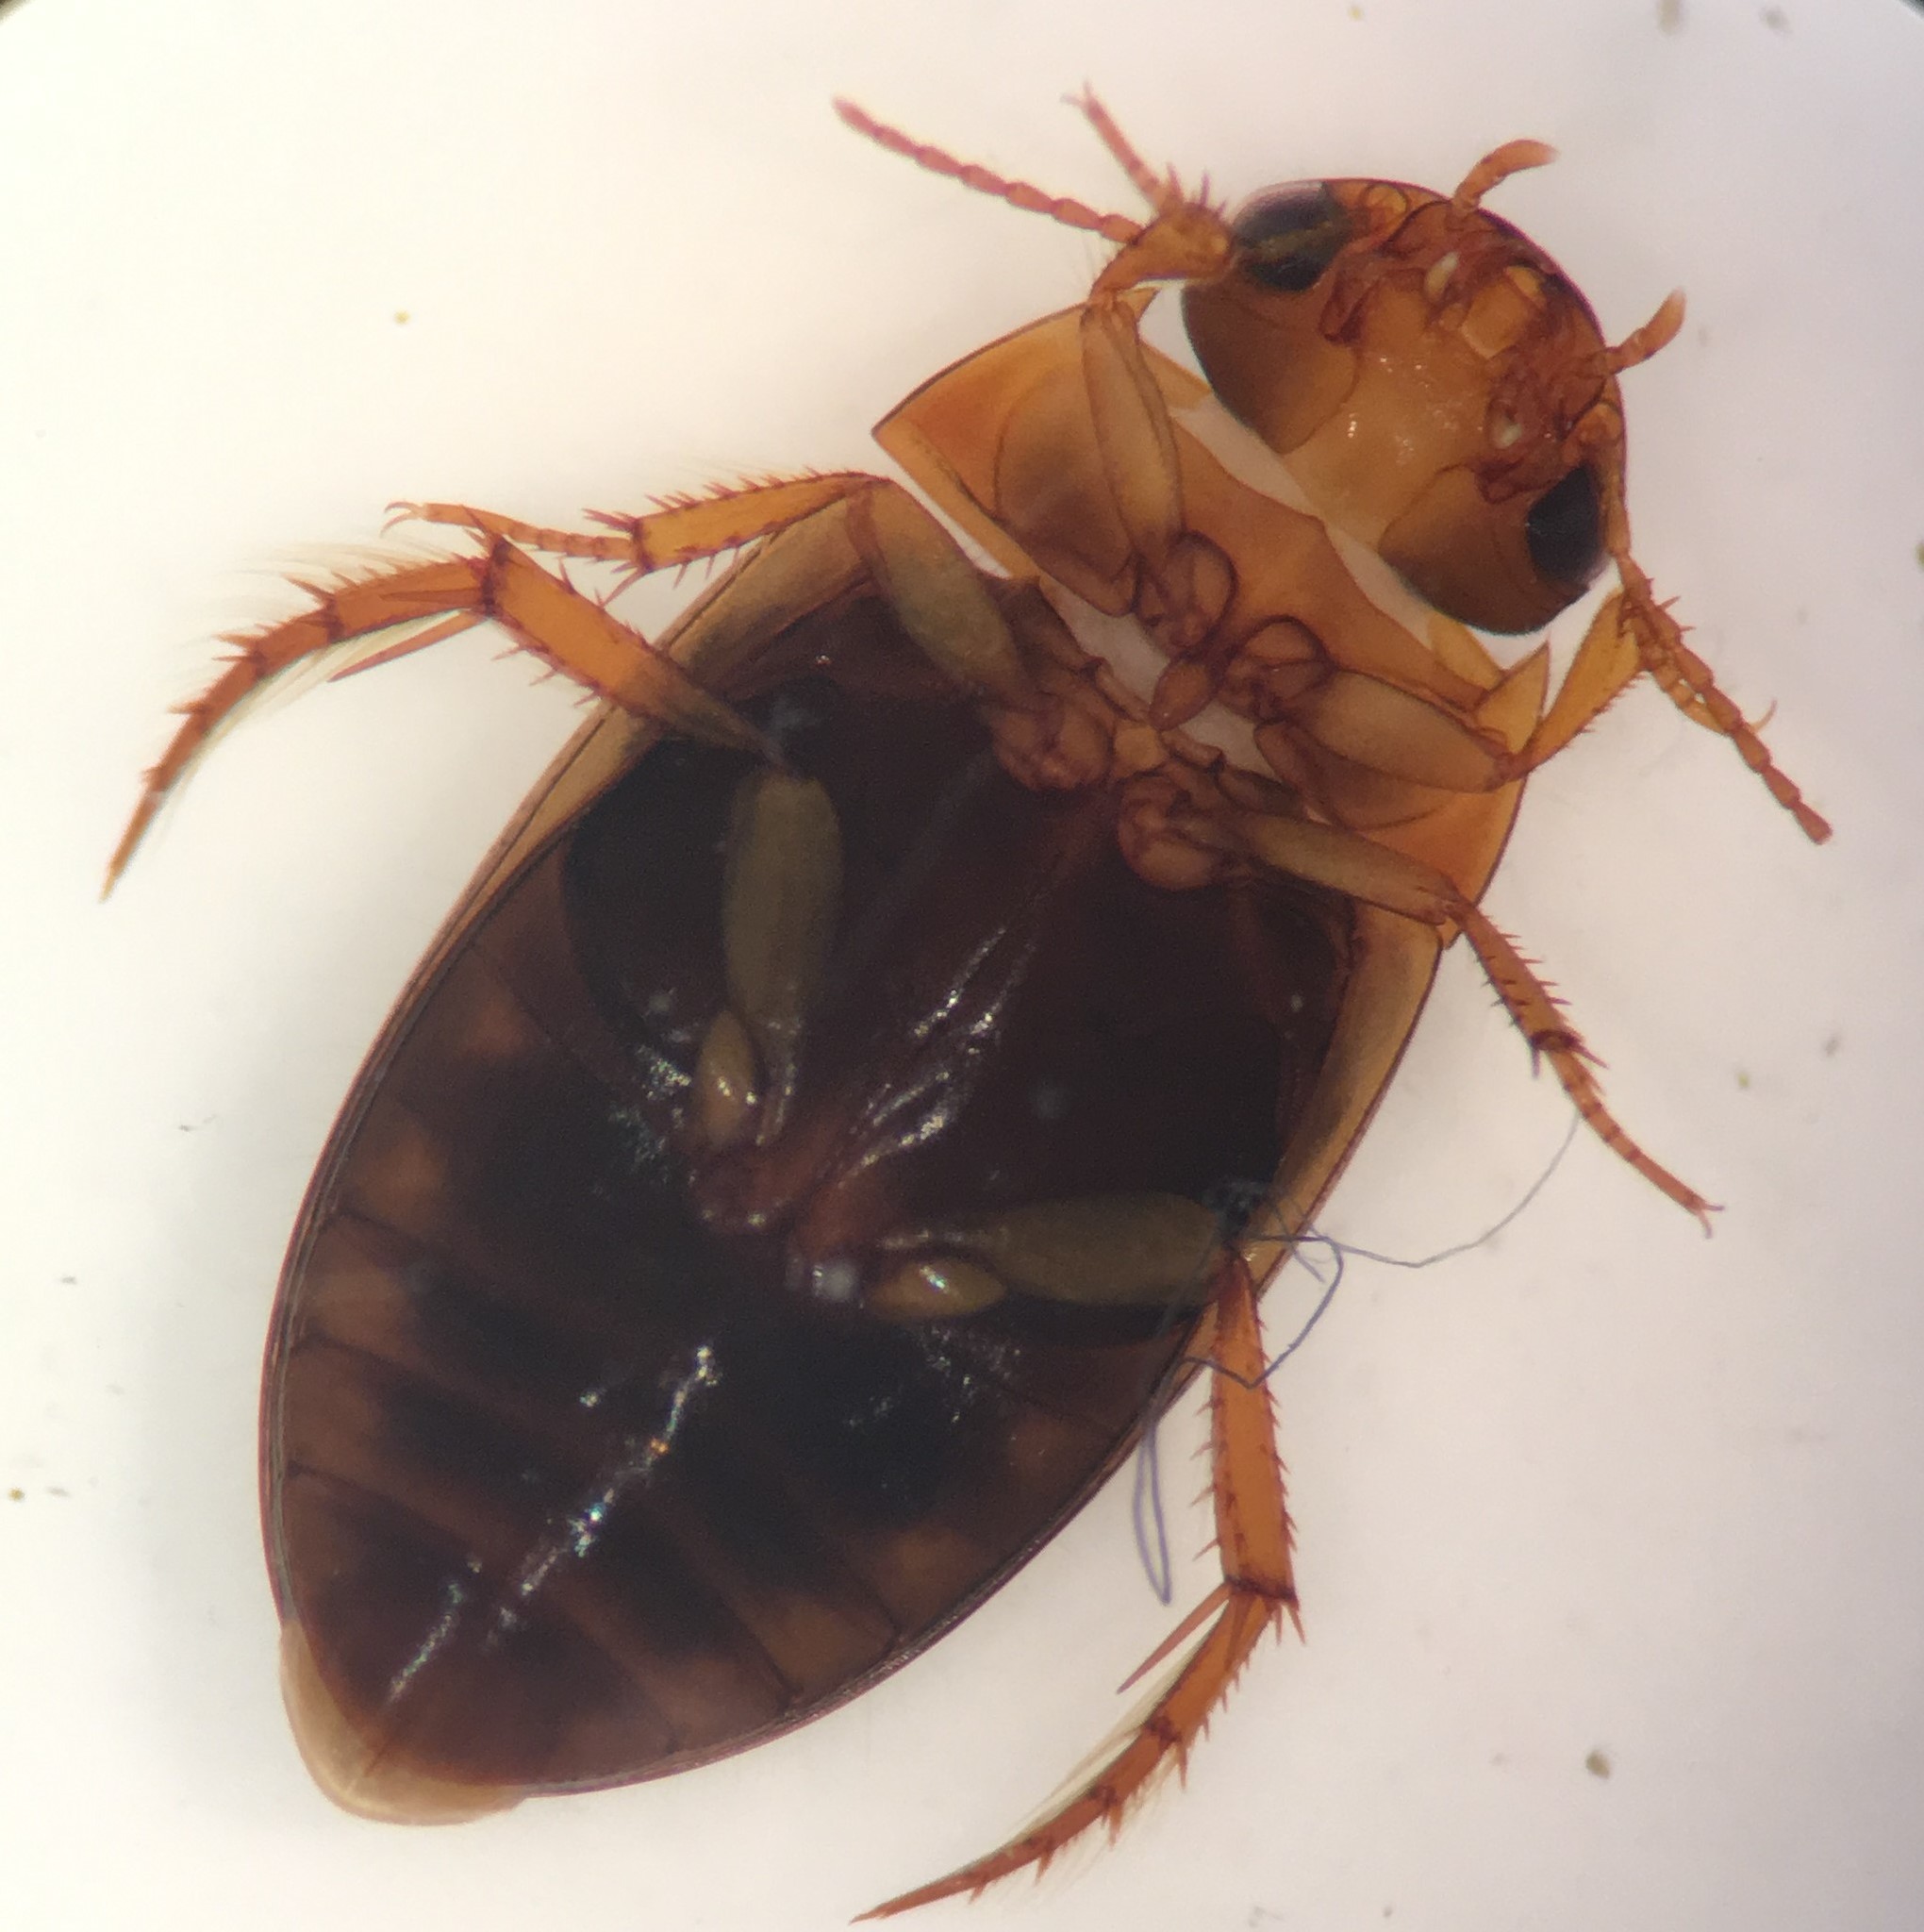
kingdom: Animalia
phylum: Arthropoda
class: Insecta
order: Coleoptera
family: Dytiscidae
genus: Copelatus
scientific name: Copelatus glyphicus
